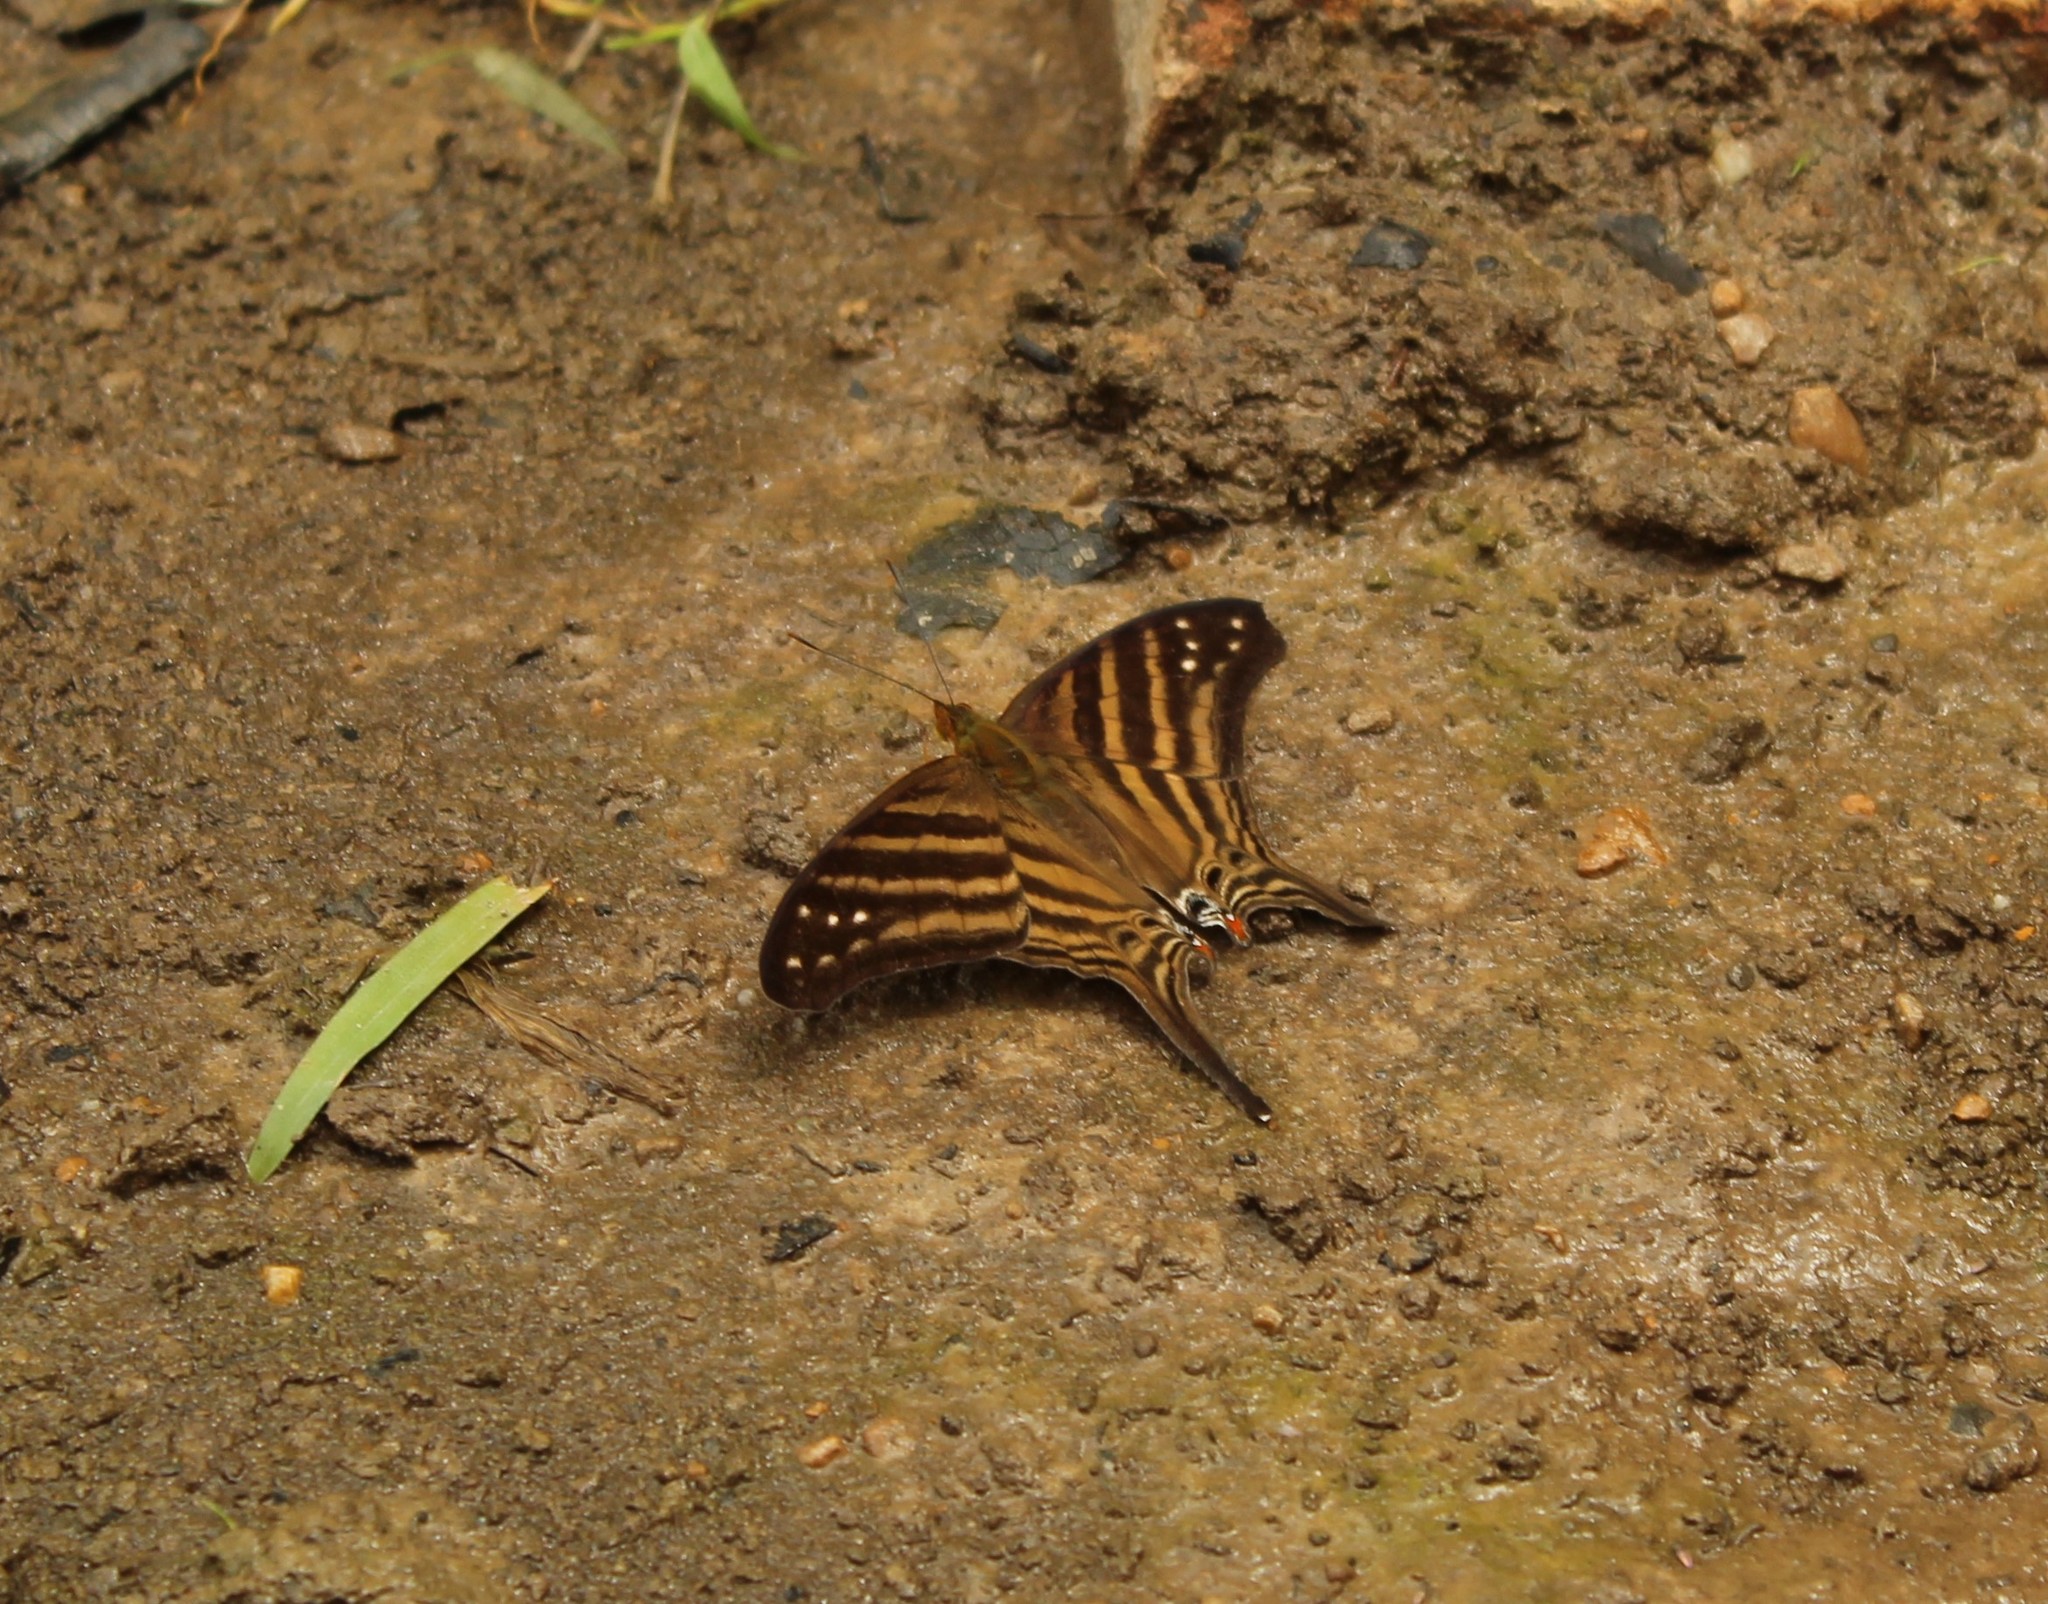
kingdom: Animalia
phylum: Arthropoda
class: Insecta
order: Lepidoptera
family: Nymphalidae
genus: Marpesia
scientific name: Marpesia chiron
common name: Many-banded daggerwing
